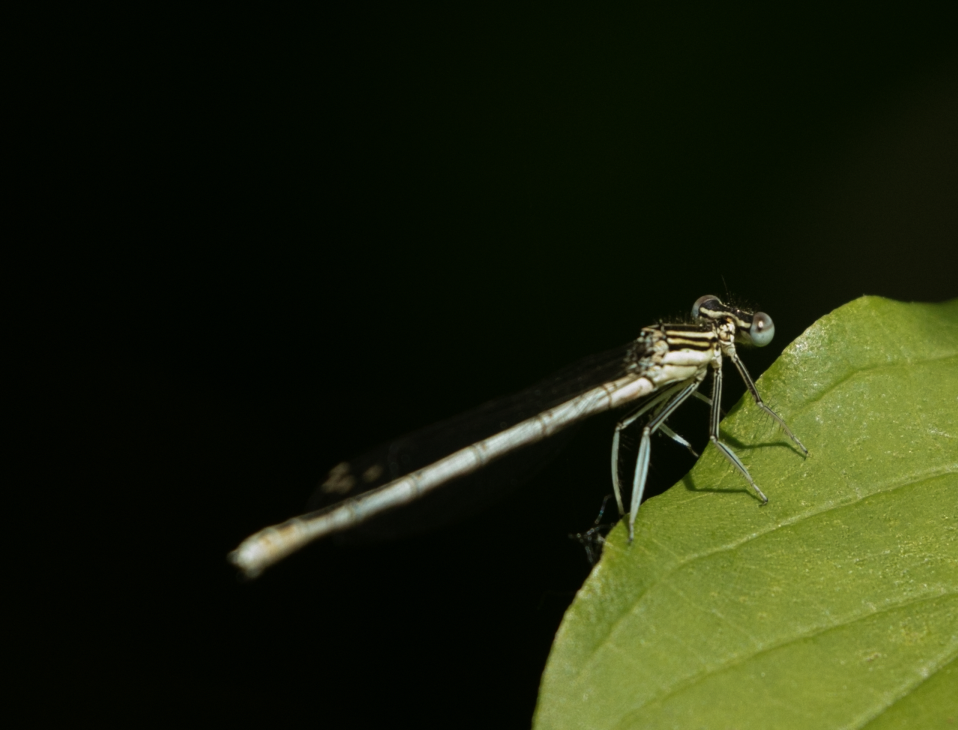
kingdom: Animalia
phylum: Arthropoda
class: Insecta
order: Odonata
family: Platycnemididae
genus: Platycnemis
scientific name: Platycnemis pennipes
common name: White-legged damselfly
